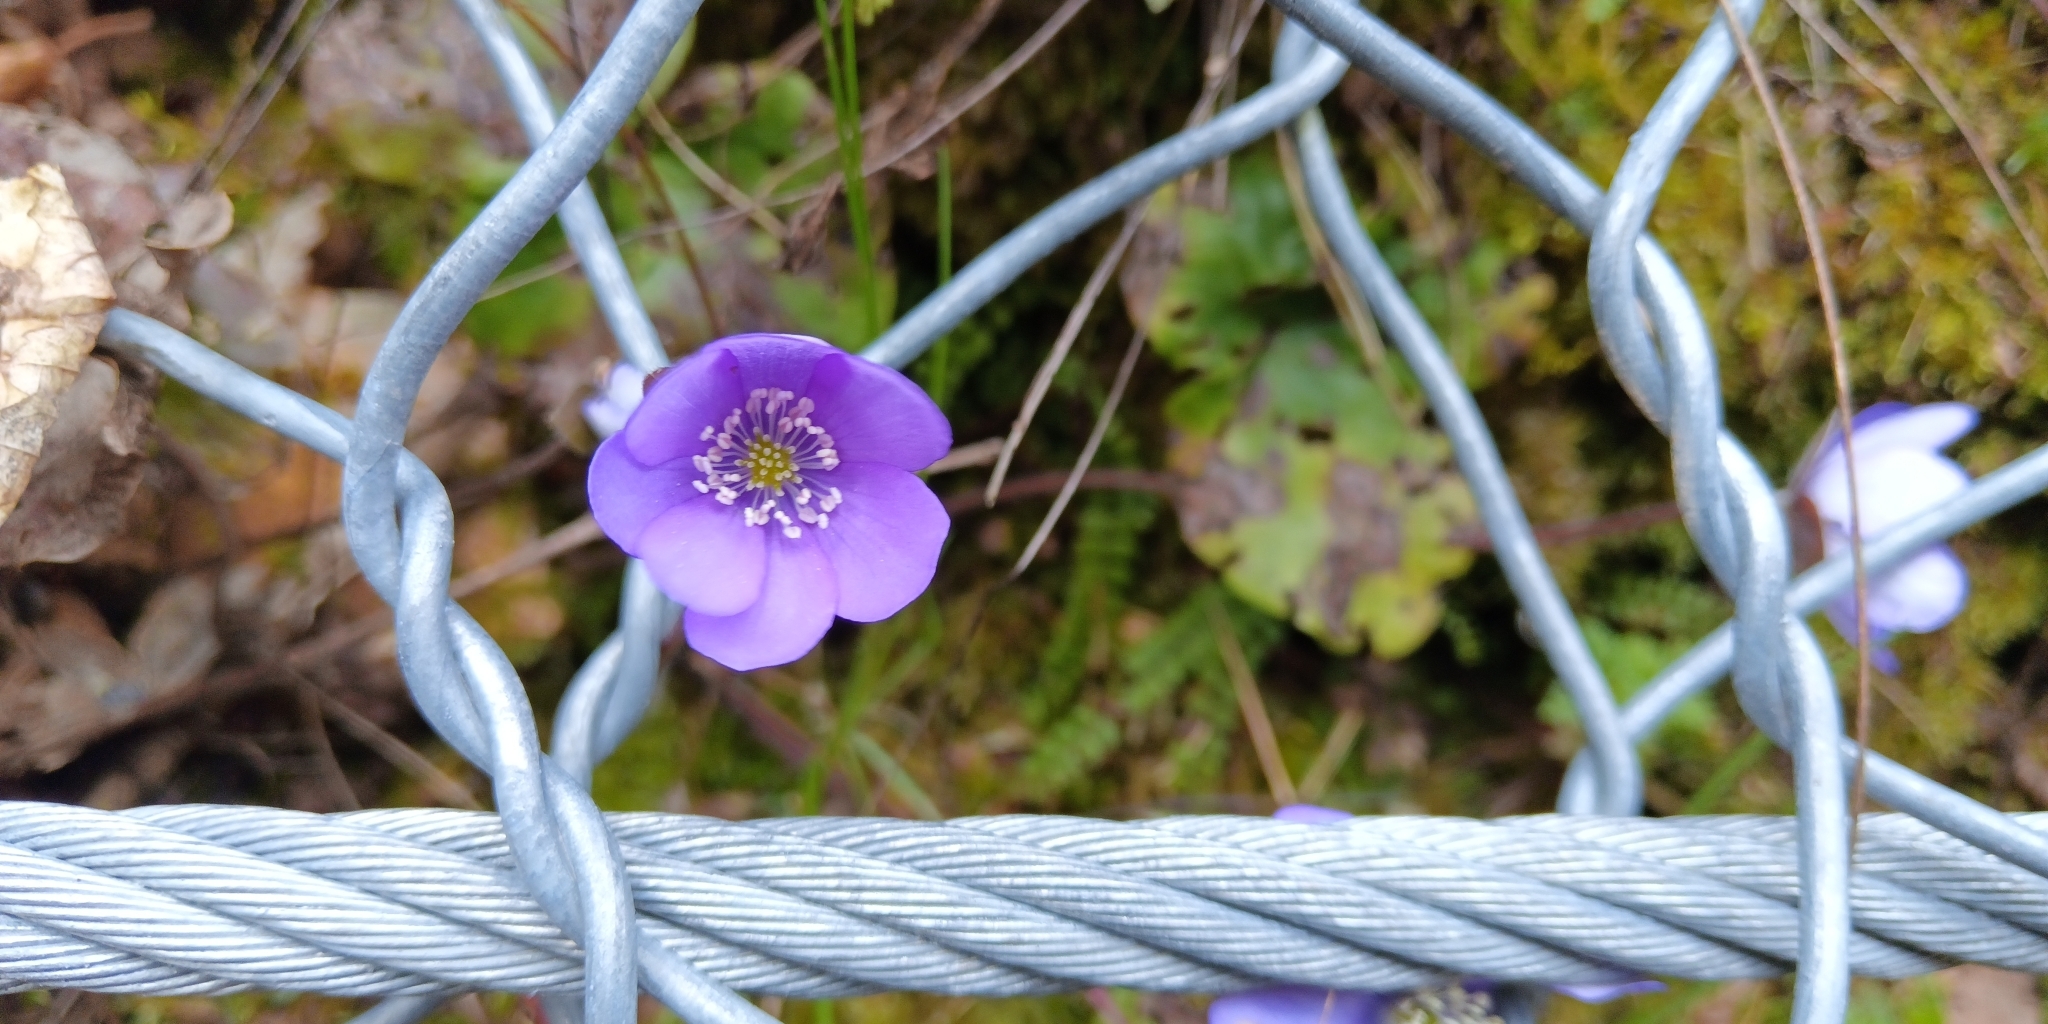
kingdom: Plantae
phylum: Tracheophyta
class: Magnoliopsida
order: Ranunculales
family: Ranunculaceae
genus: Hepatica
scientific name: Hepatica nobilis
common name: Liverleaf
